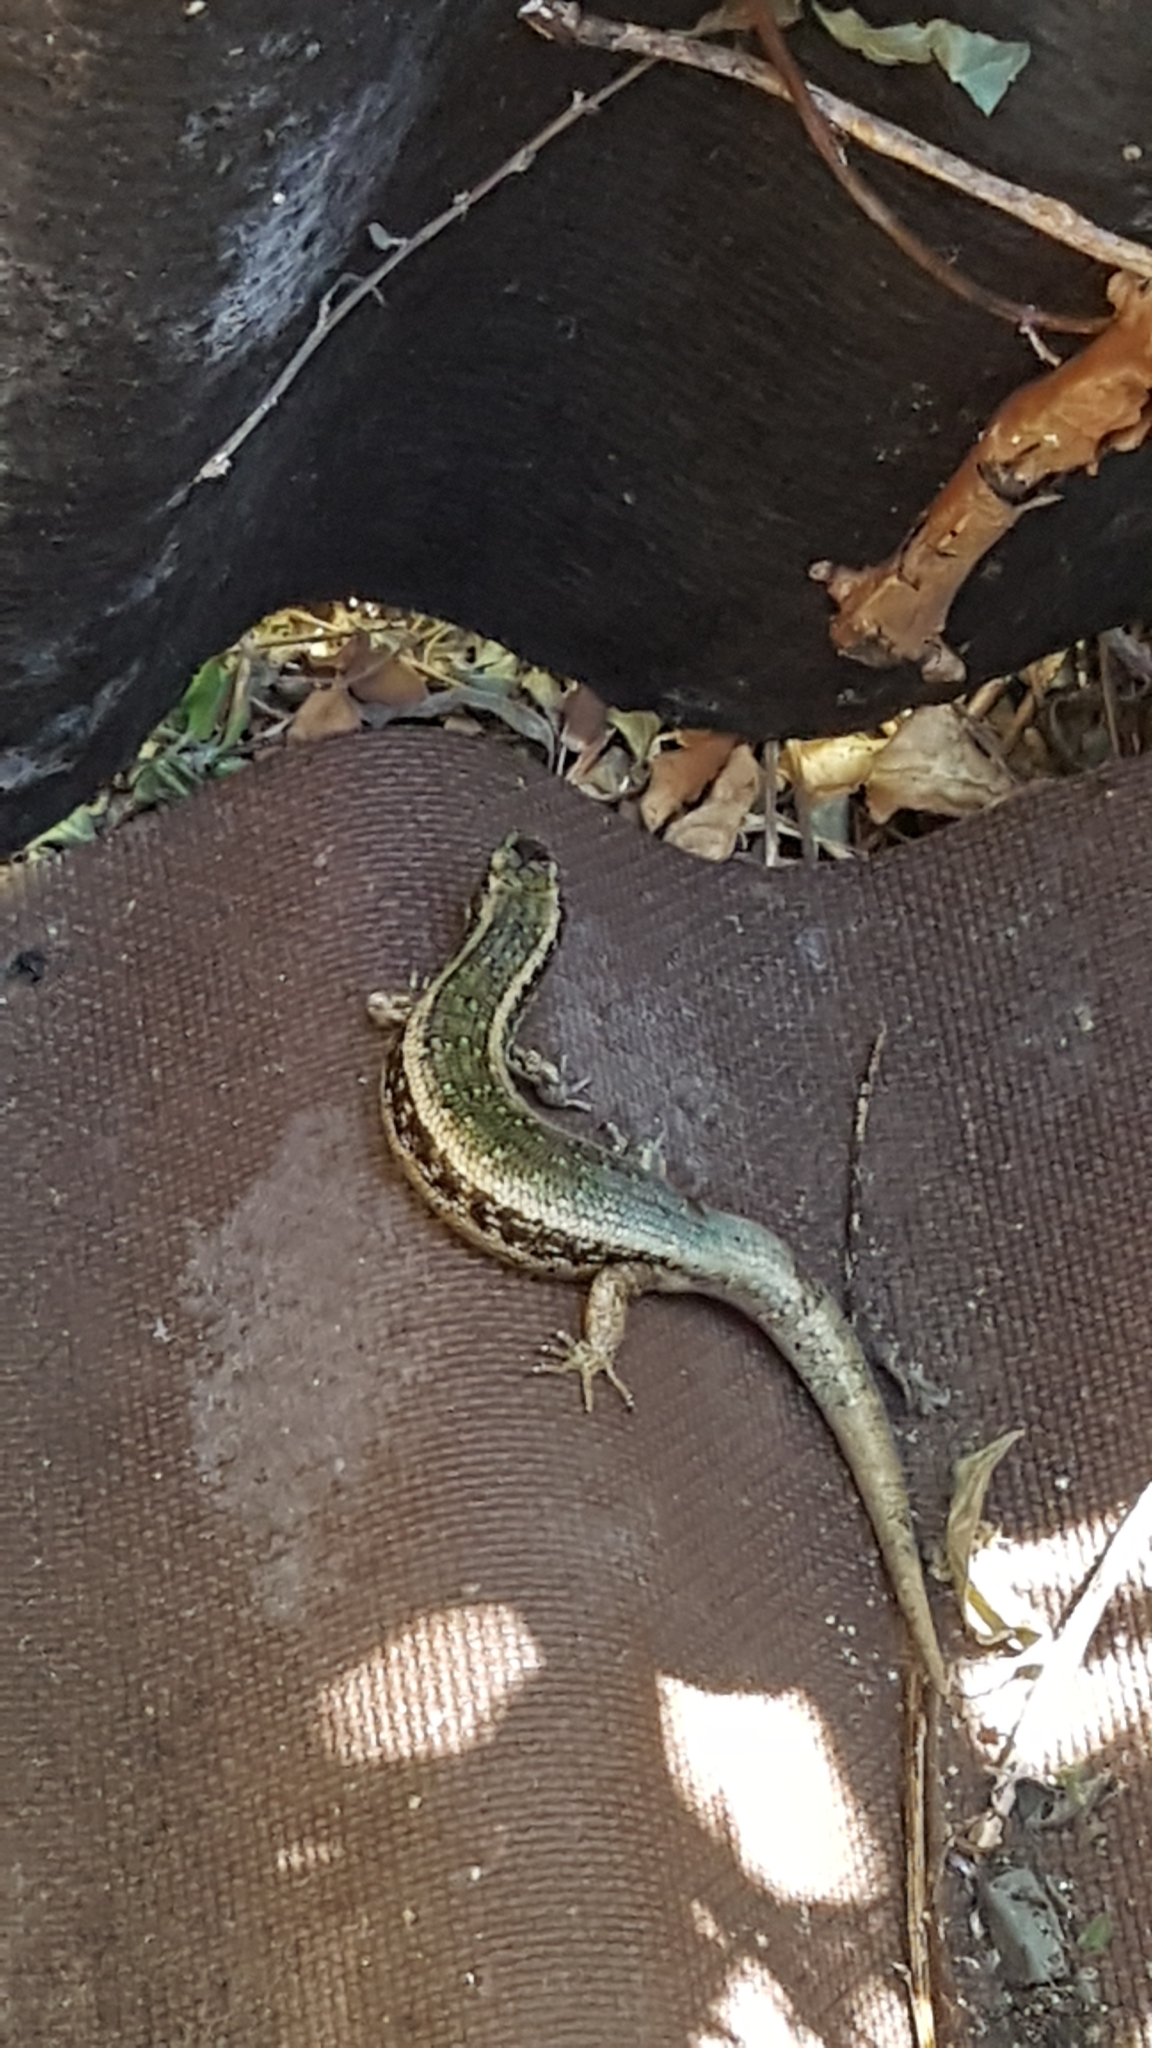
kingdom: Animalia
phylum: Chordata
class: Squamata
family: Scincidae
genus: Oligosoma
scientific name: Oligosoma kokowai
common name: Northern spotted skink
